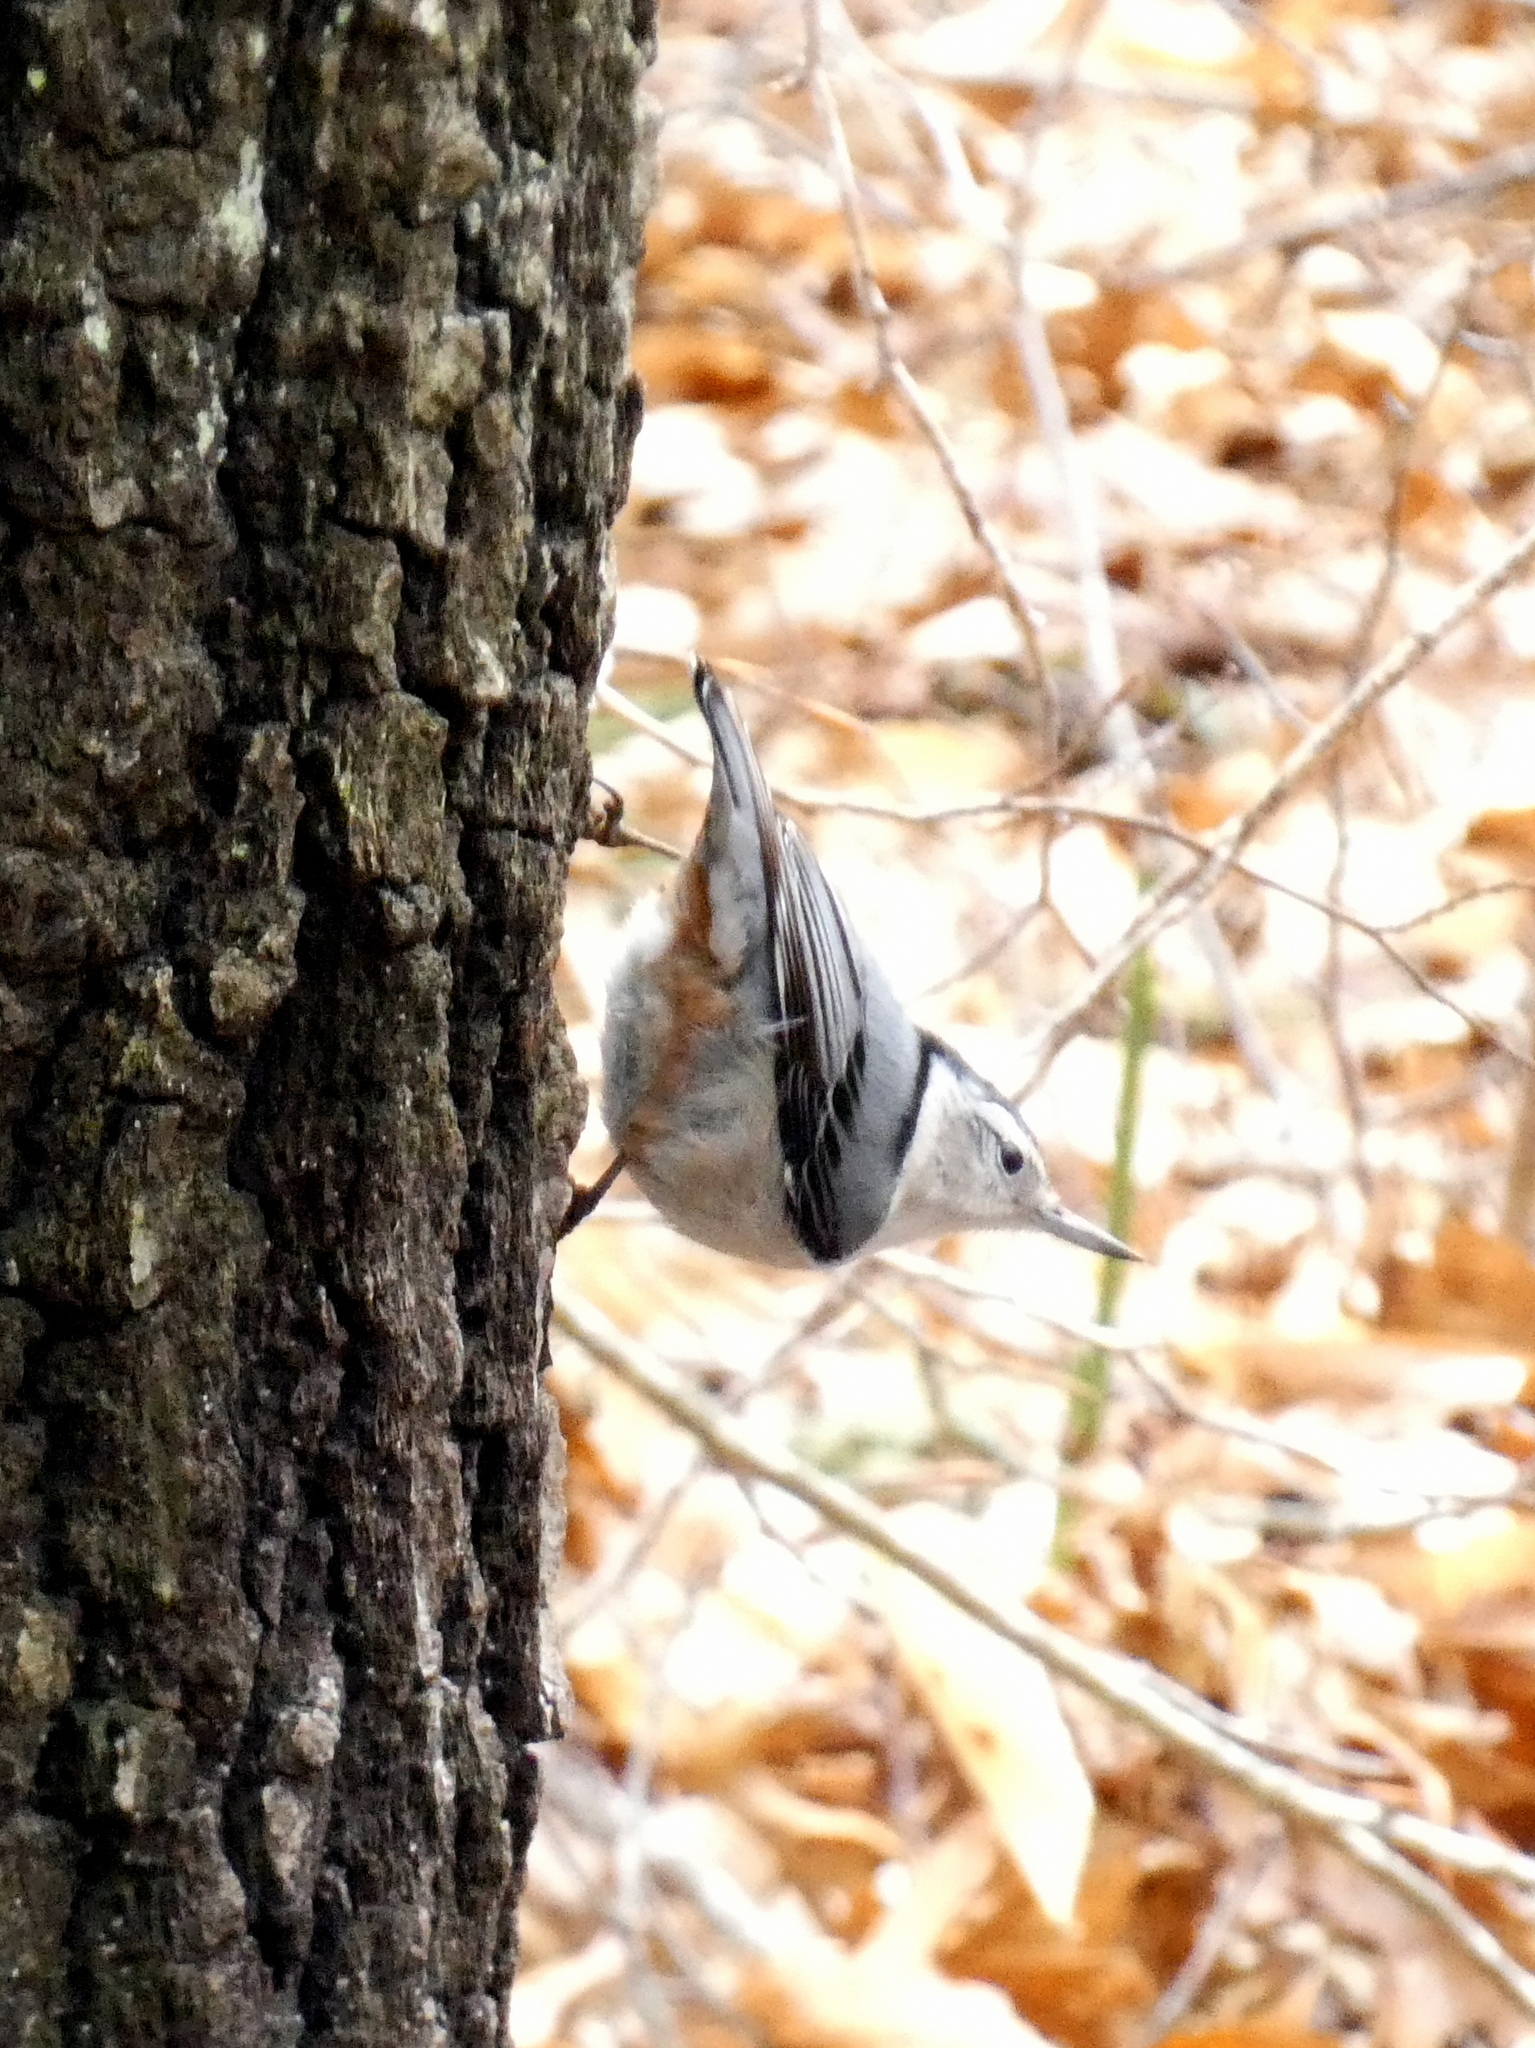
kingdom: Animalia
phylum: Chordata
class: Aves
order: Passeriformes
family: Sittidae
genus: Sitta
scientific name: Sitta carolinensis
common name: White-breasted nuthatch
